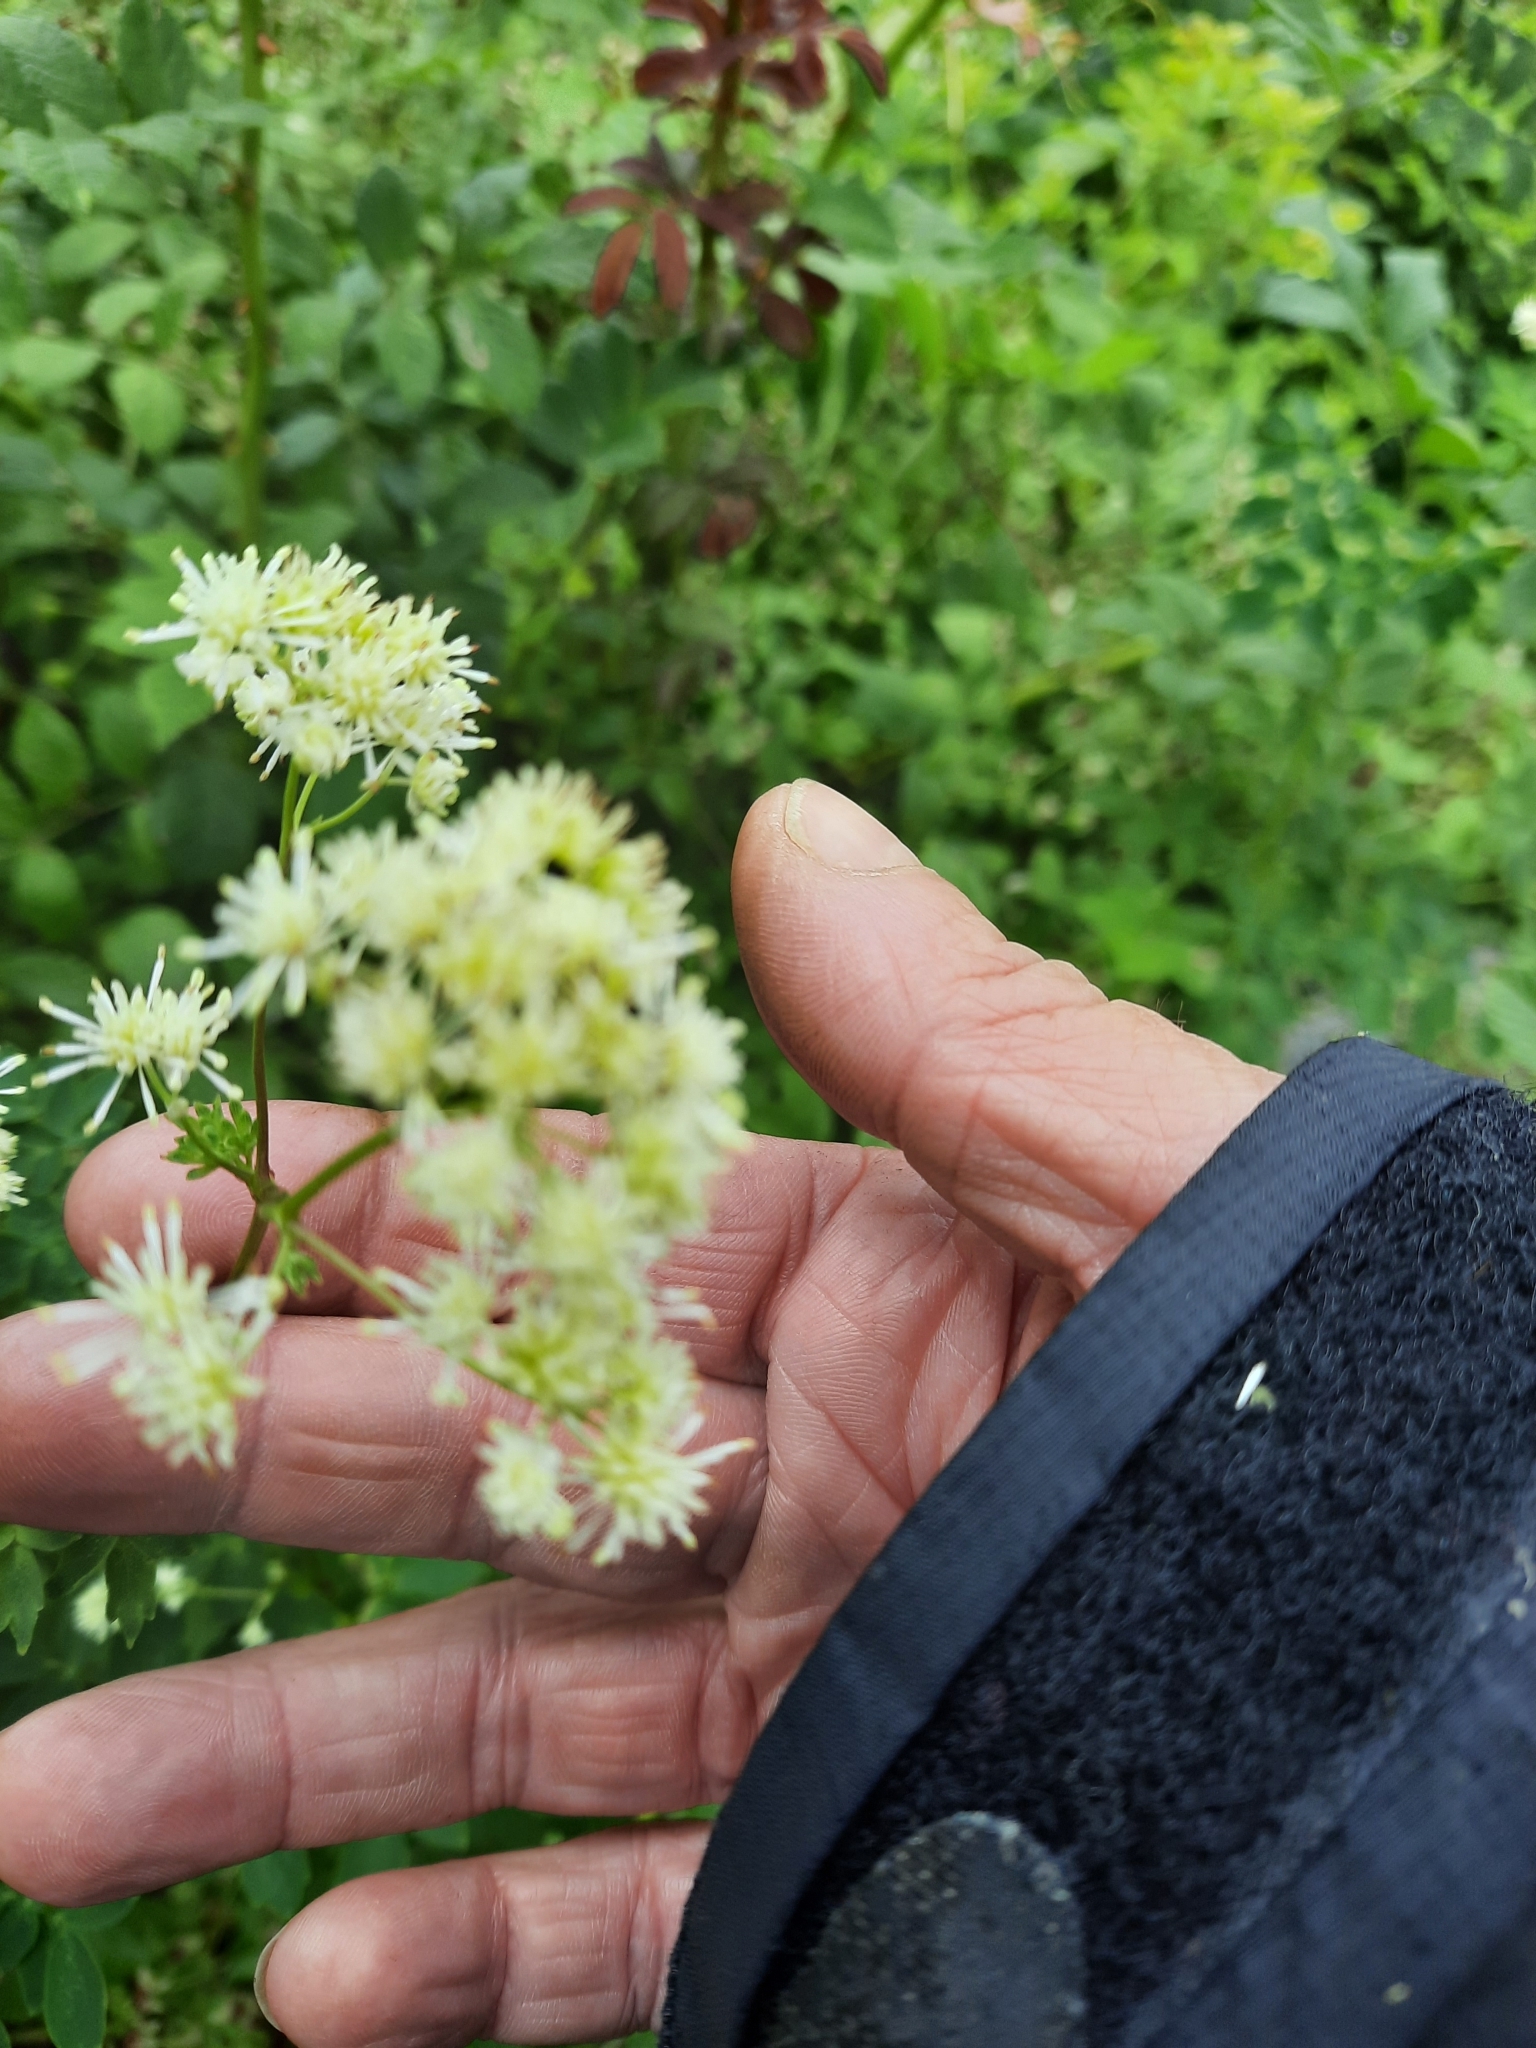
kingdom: Plantae
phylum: Tracheophyta
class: Magnoliopsida
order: Ranunculales
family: Ranunculaceae
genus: Thalictrum
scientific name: Thalictrum pubescens
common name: King-of-the-meadow
